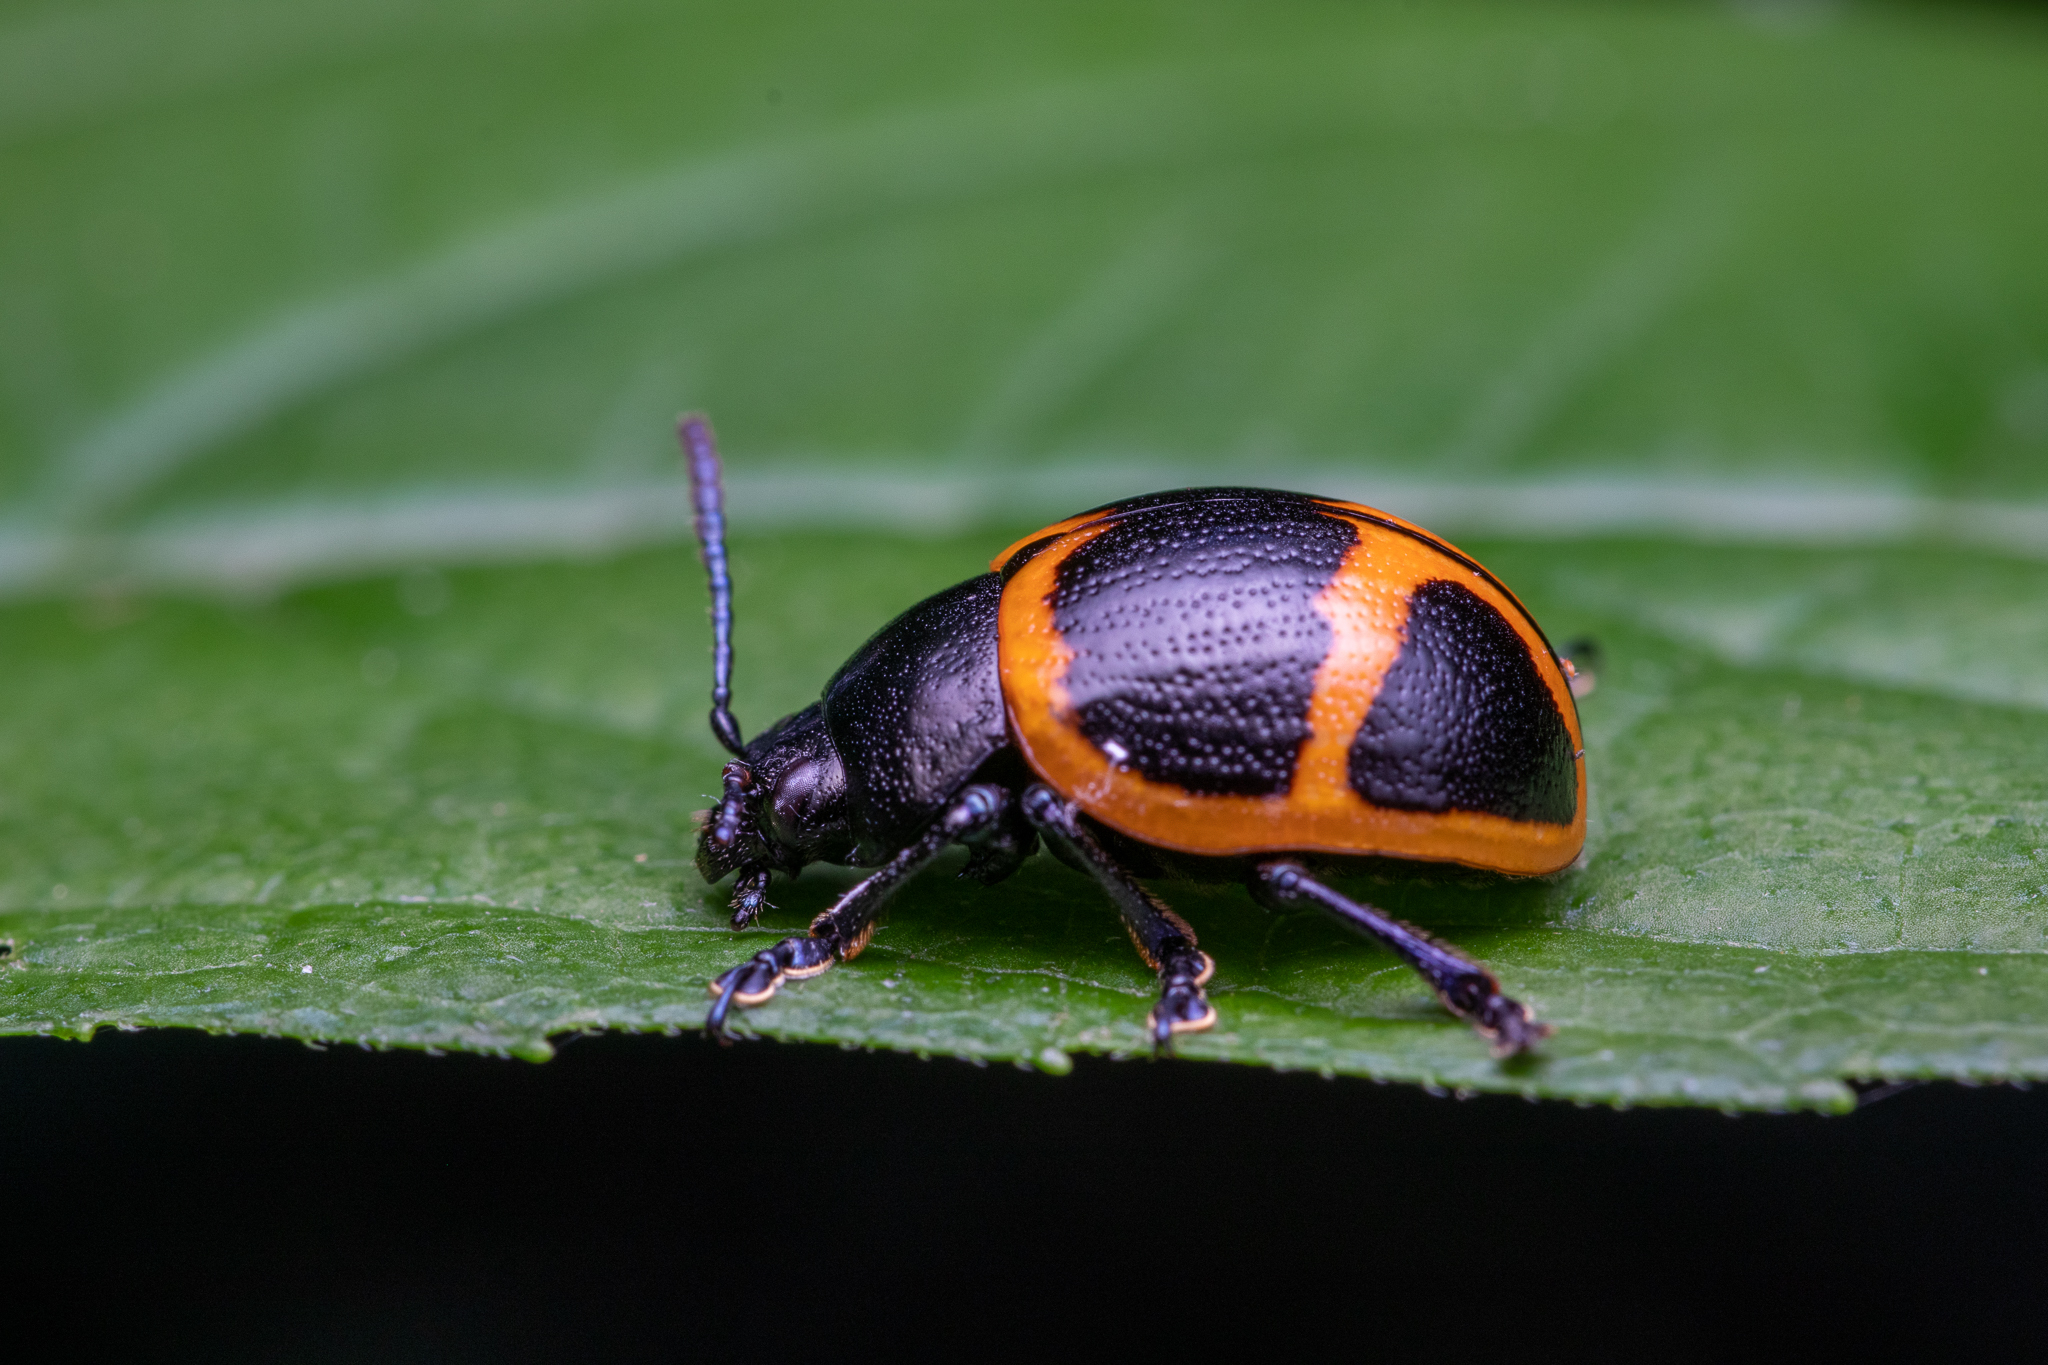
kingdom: Animalia
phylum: Arthropoda
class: Insecta
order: Coleoptera
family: Chrysomelidae
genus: Labidomera
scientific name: Labidomera clivicollis
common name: Swamp milkweed leaf beetle
